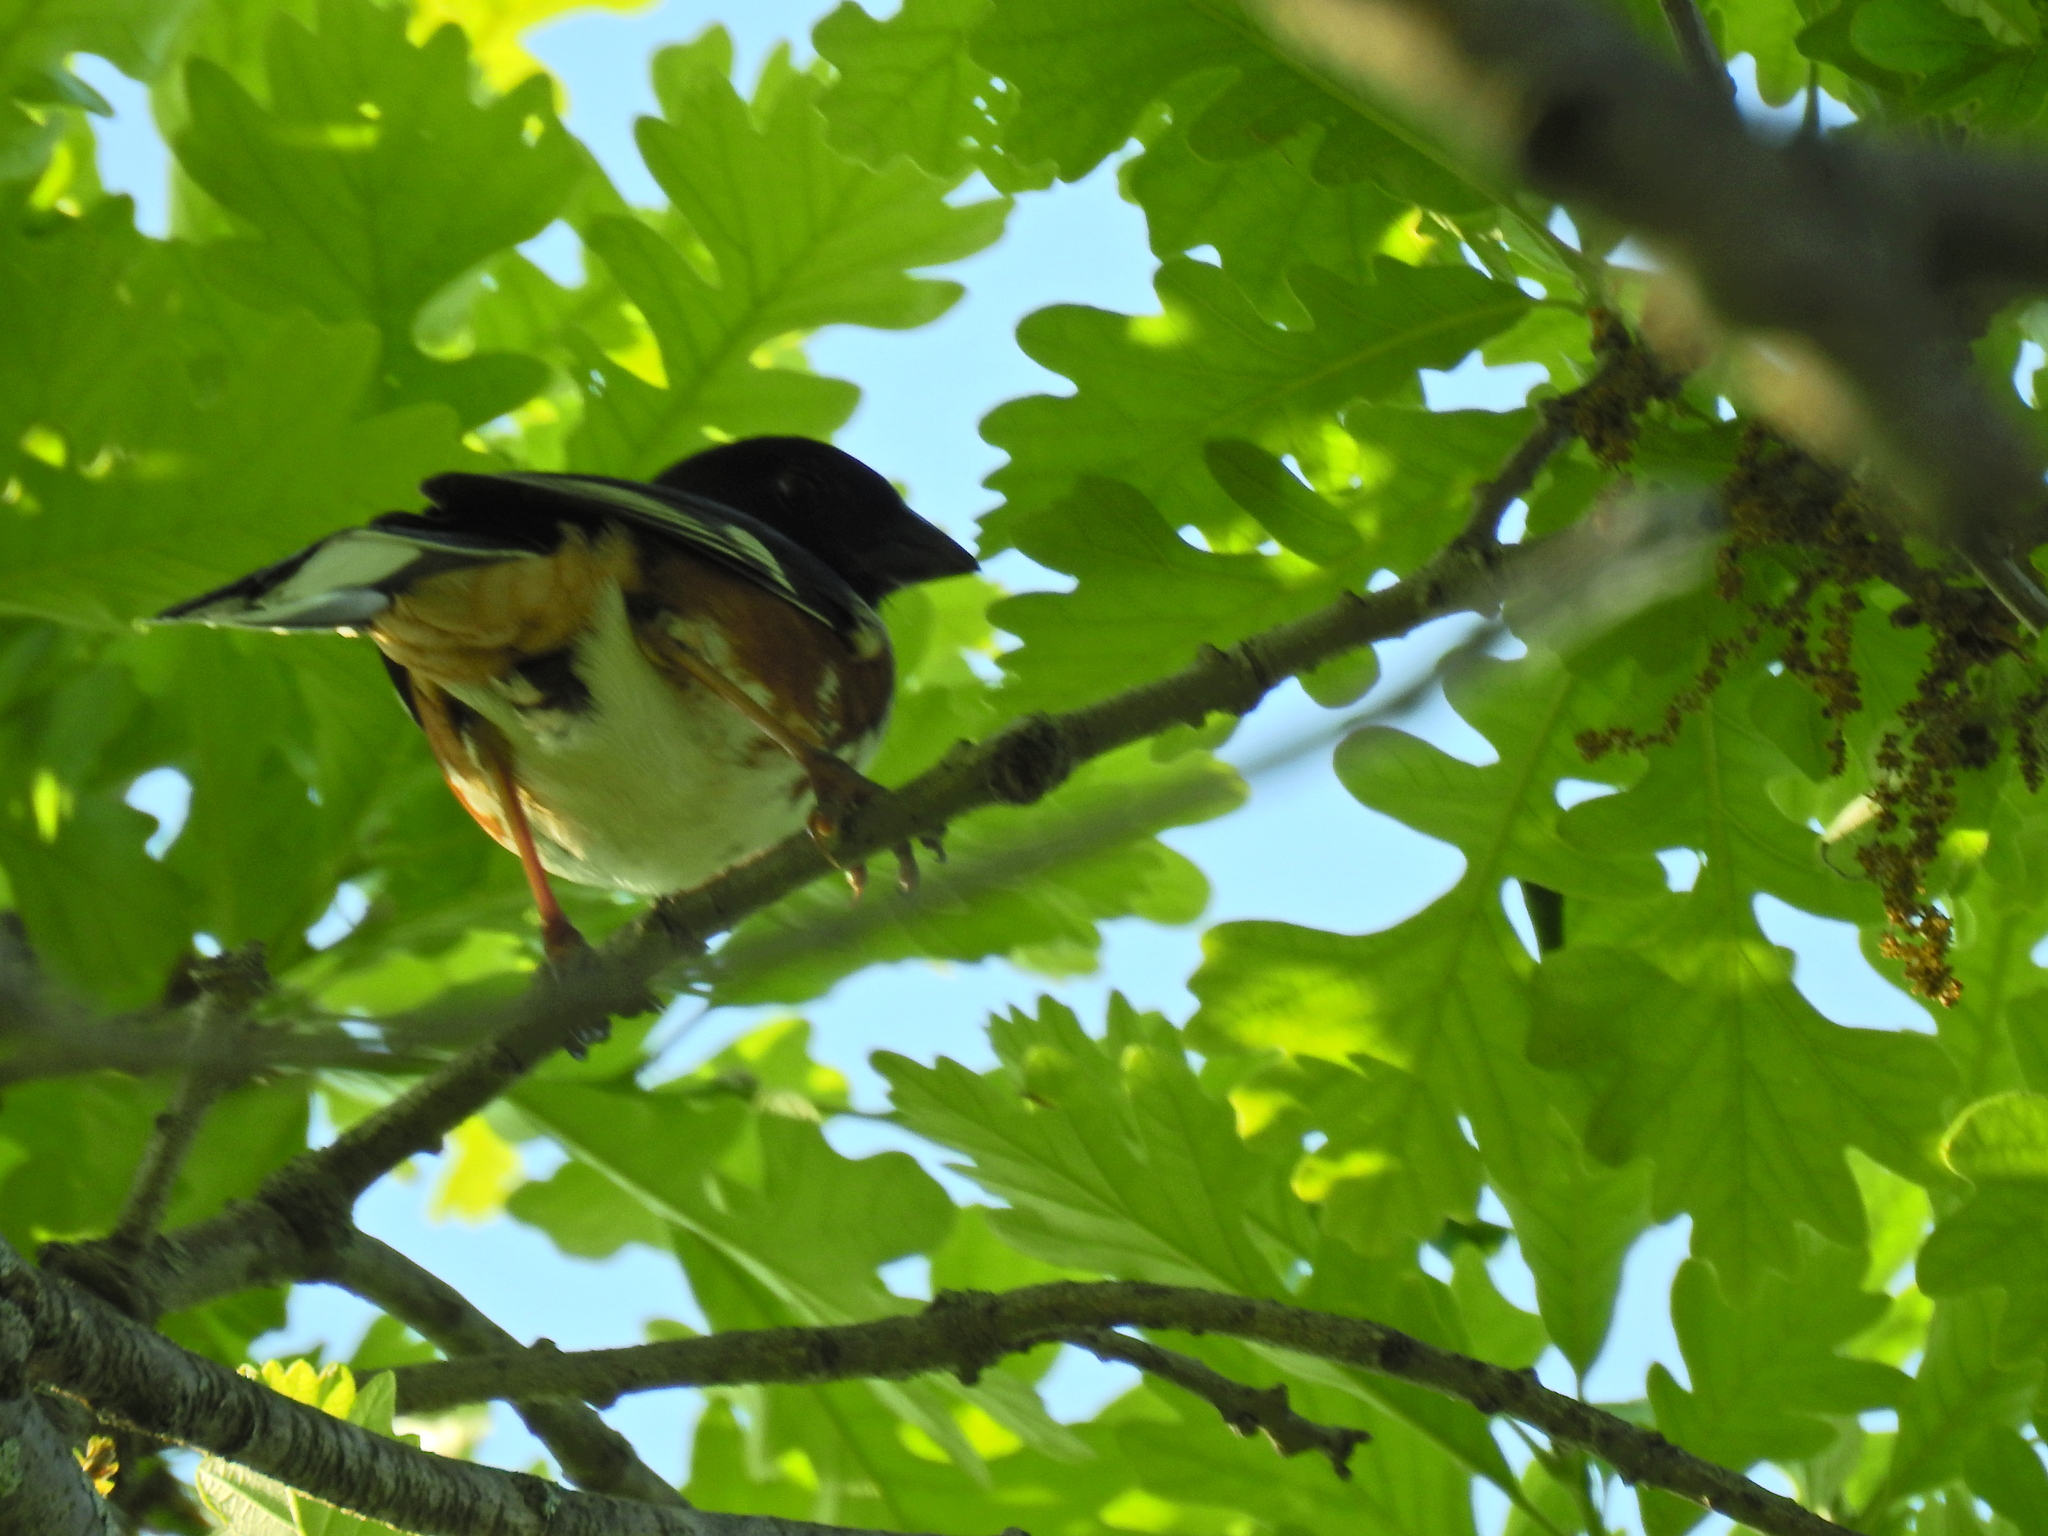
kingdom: Animalia
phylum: Chordata
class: Aves
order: Passeriformes
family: Passerellidae
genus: Pipilo
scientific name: Pipilo erythrophthalmus
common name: Eastern towhee
